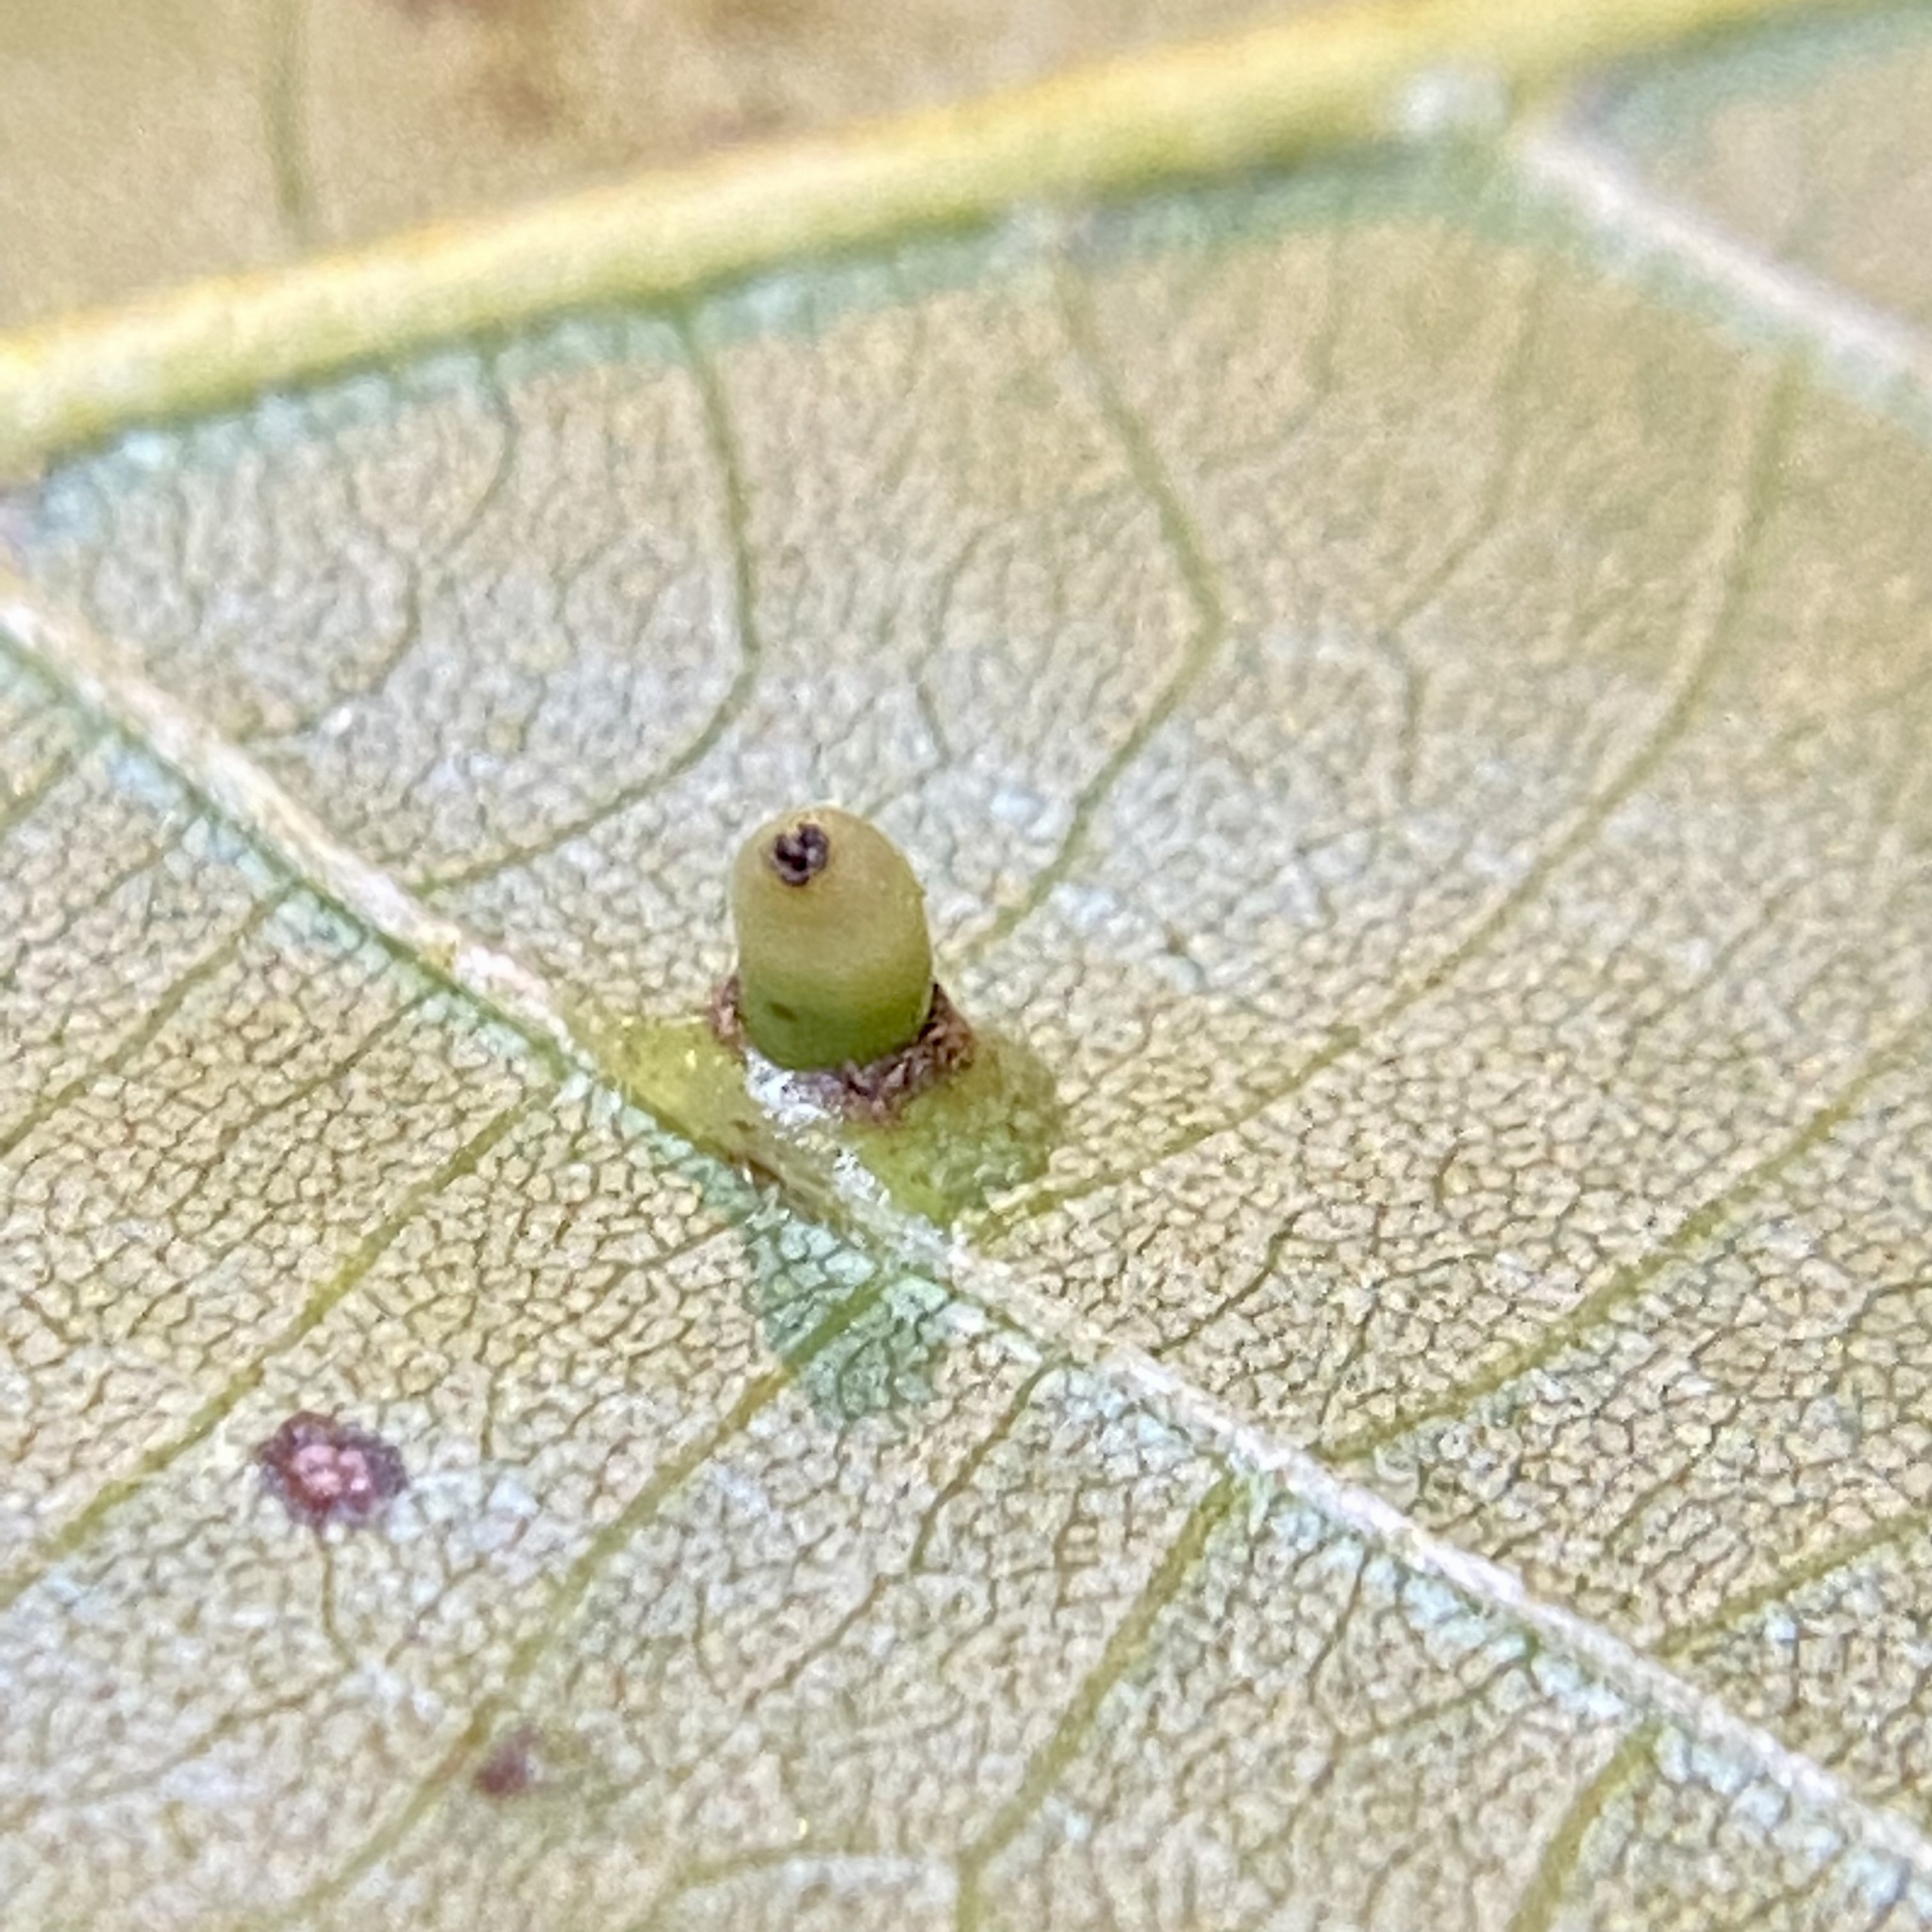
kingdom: Animalia
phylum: Arthropoda
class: Insecta
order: Diptera
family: Cecidomyiidae
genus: Caryomyia
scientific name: Caryomyia tubicola
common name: Hickory bullet gall midge
